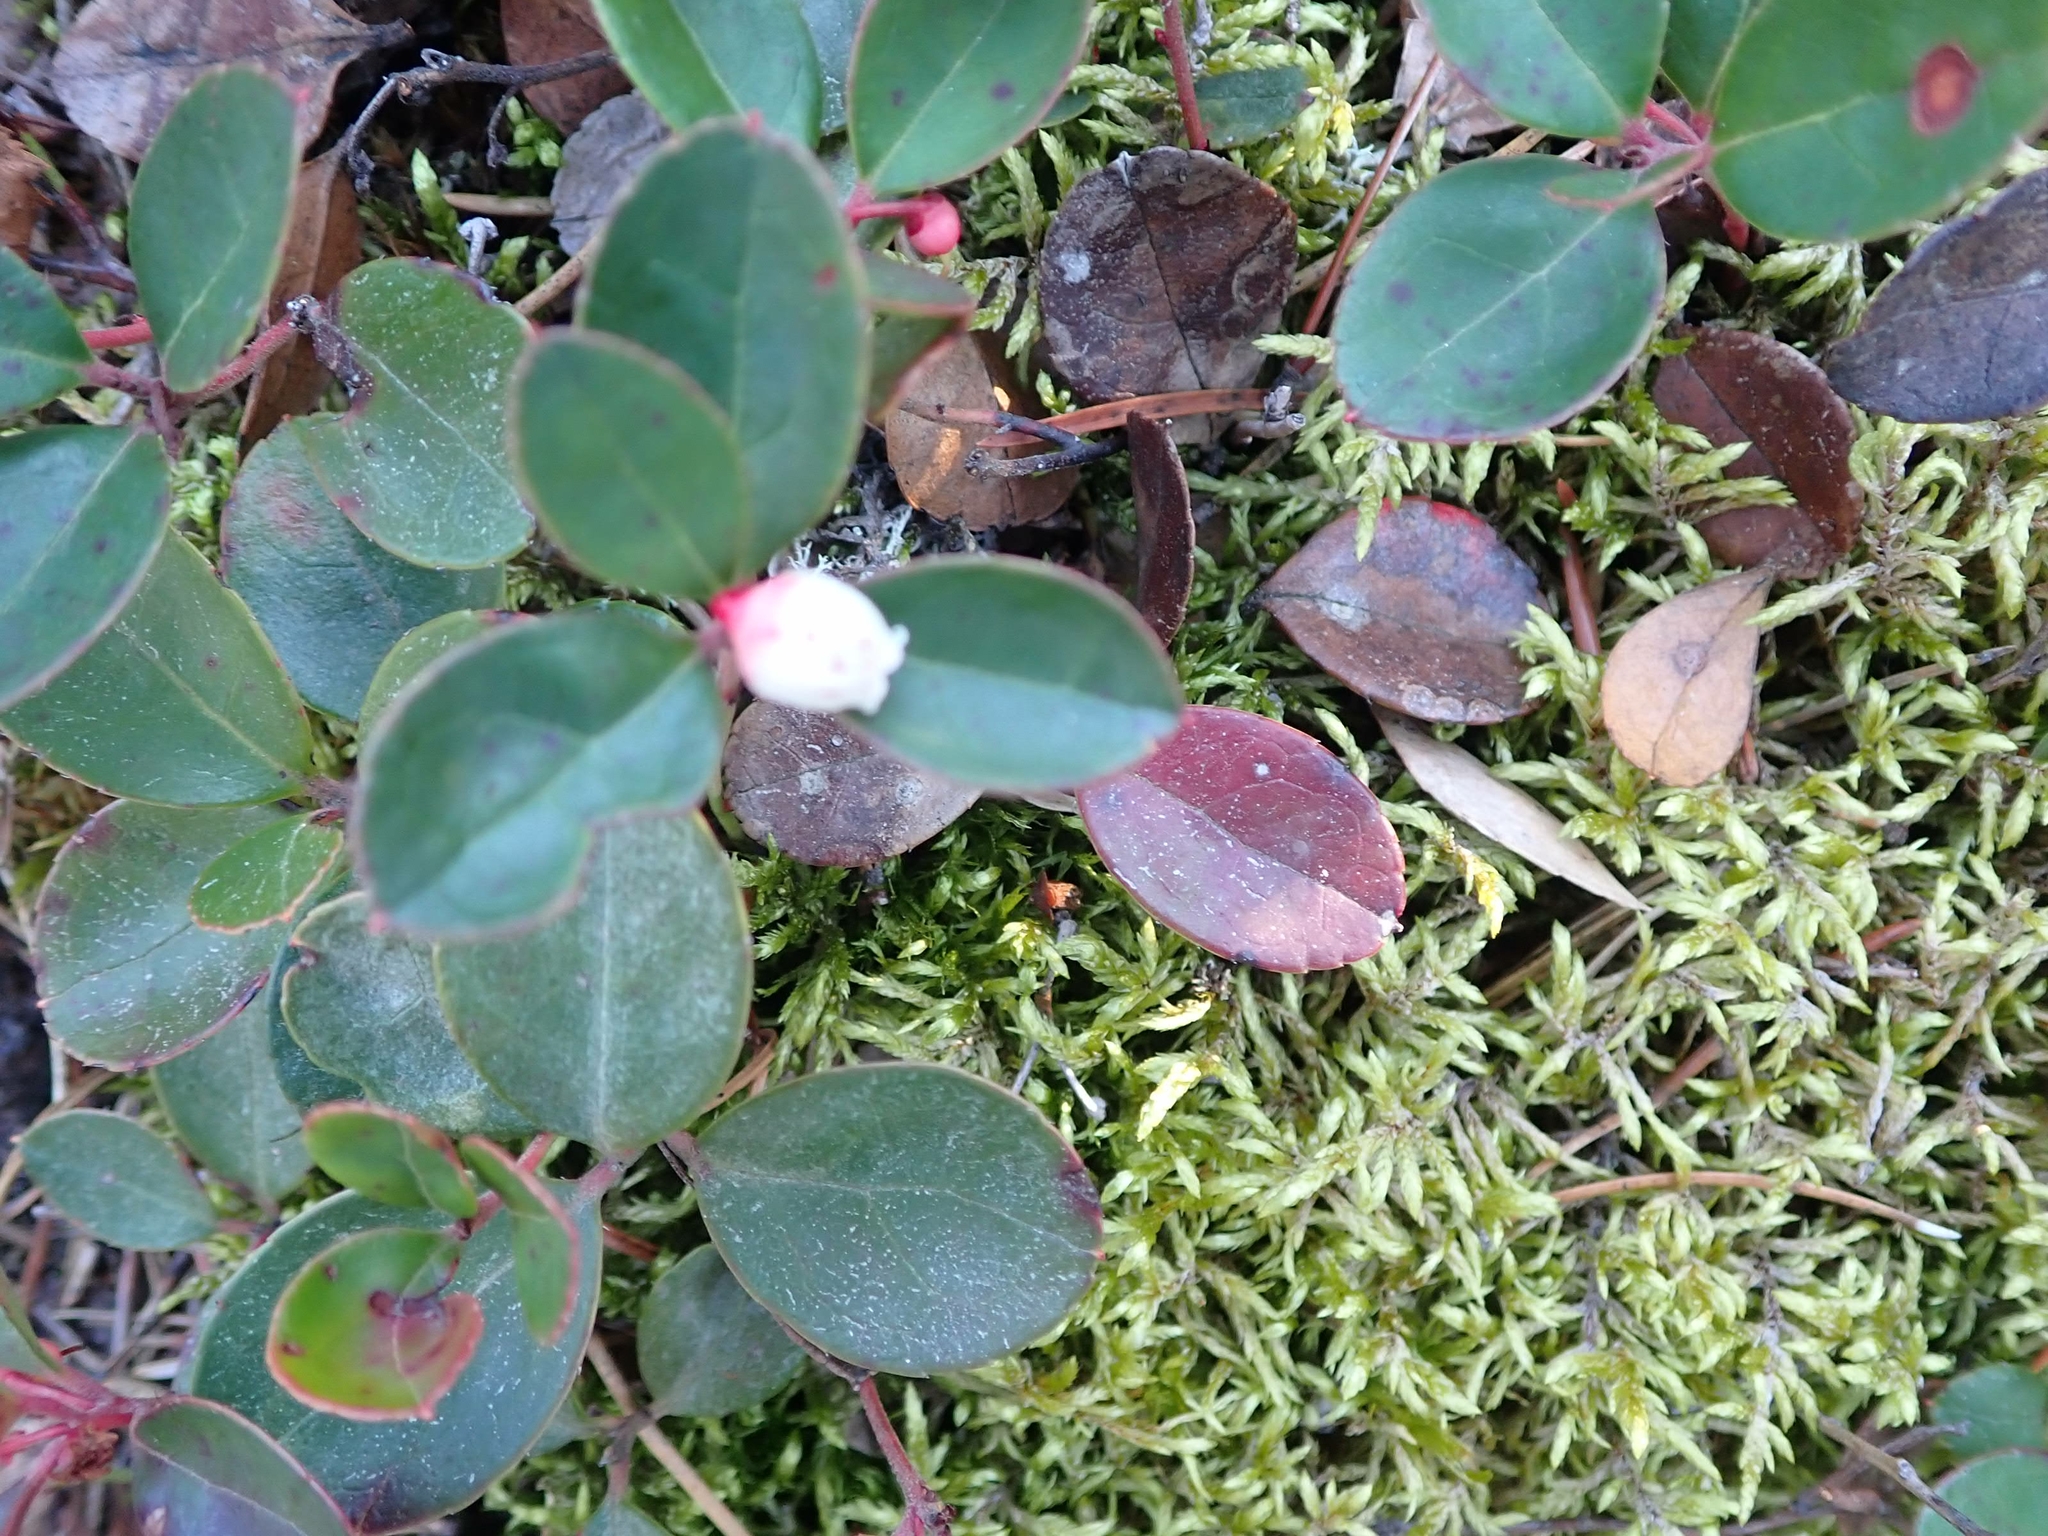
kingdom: Plantae
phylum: Tracheophyta
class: Magnoliopsida
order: Ericales
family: Ericaceae
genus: Gaultheria
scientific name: Gaultheria procumbens
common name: Checkerberry
